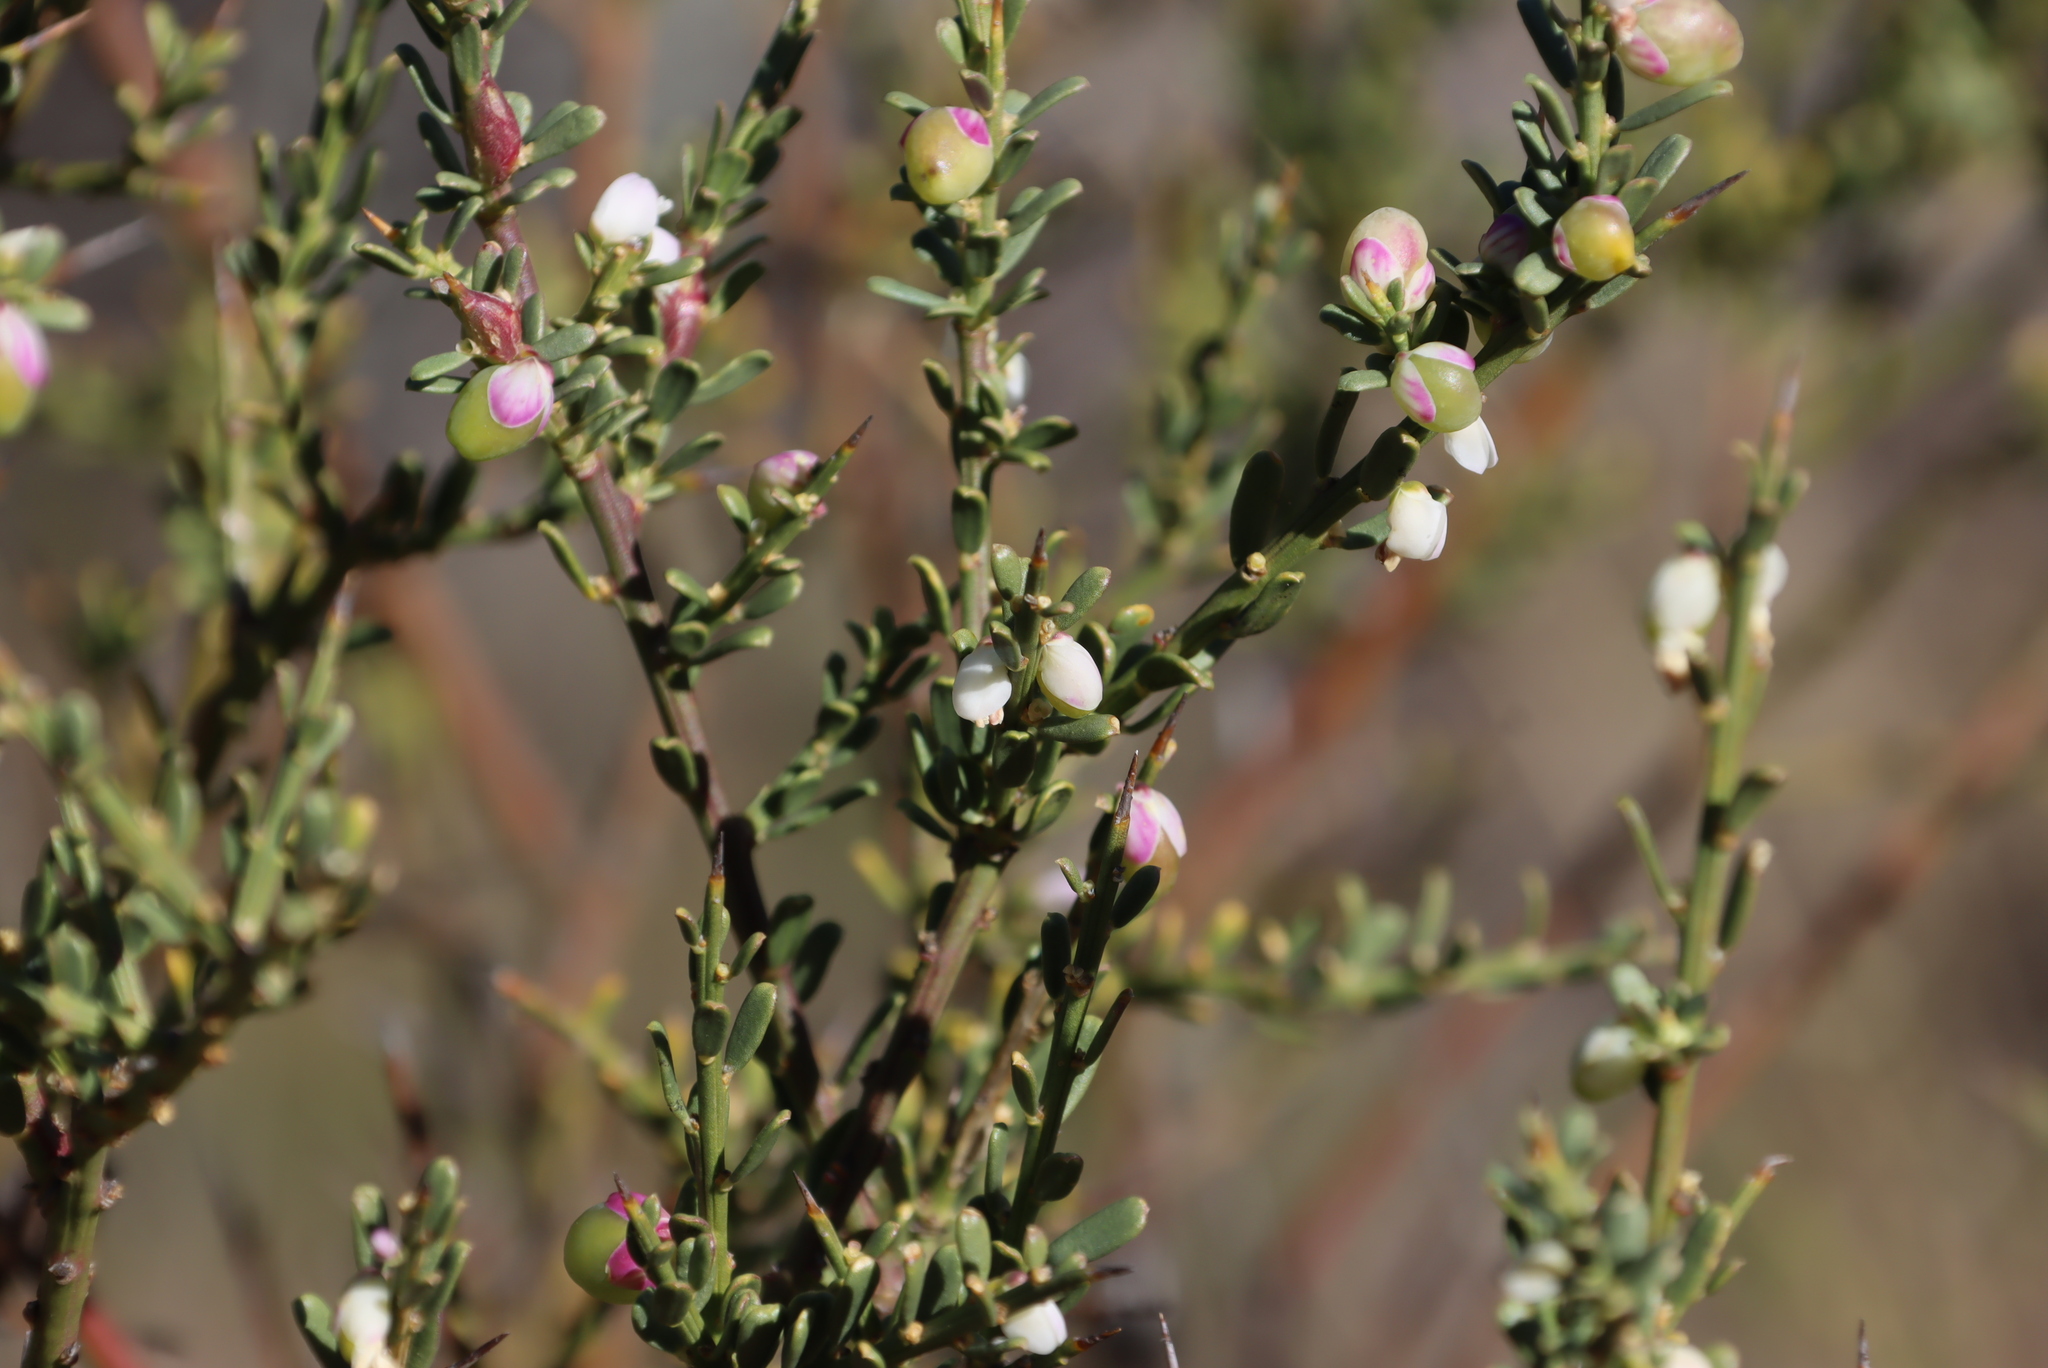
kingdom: Plantae
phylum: Tracheophyta
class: Magnoliopsida
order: Fabales
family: Polygalaceae
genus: Muraltia
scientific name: Muraltia spinosa
